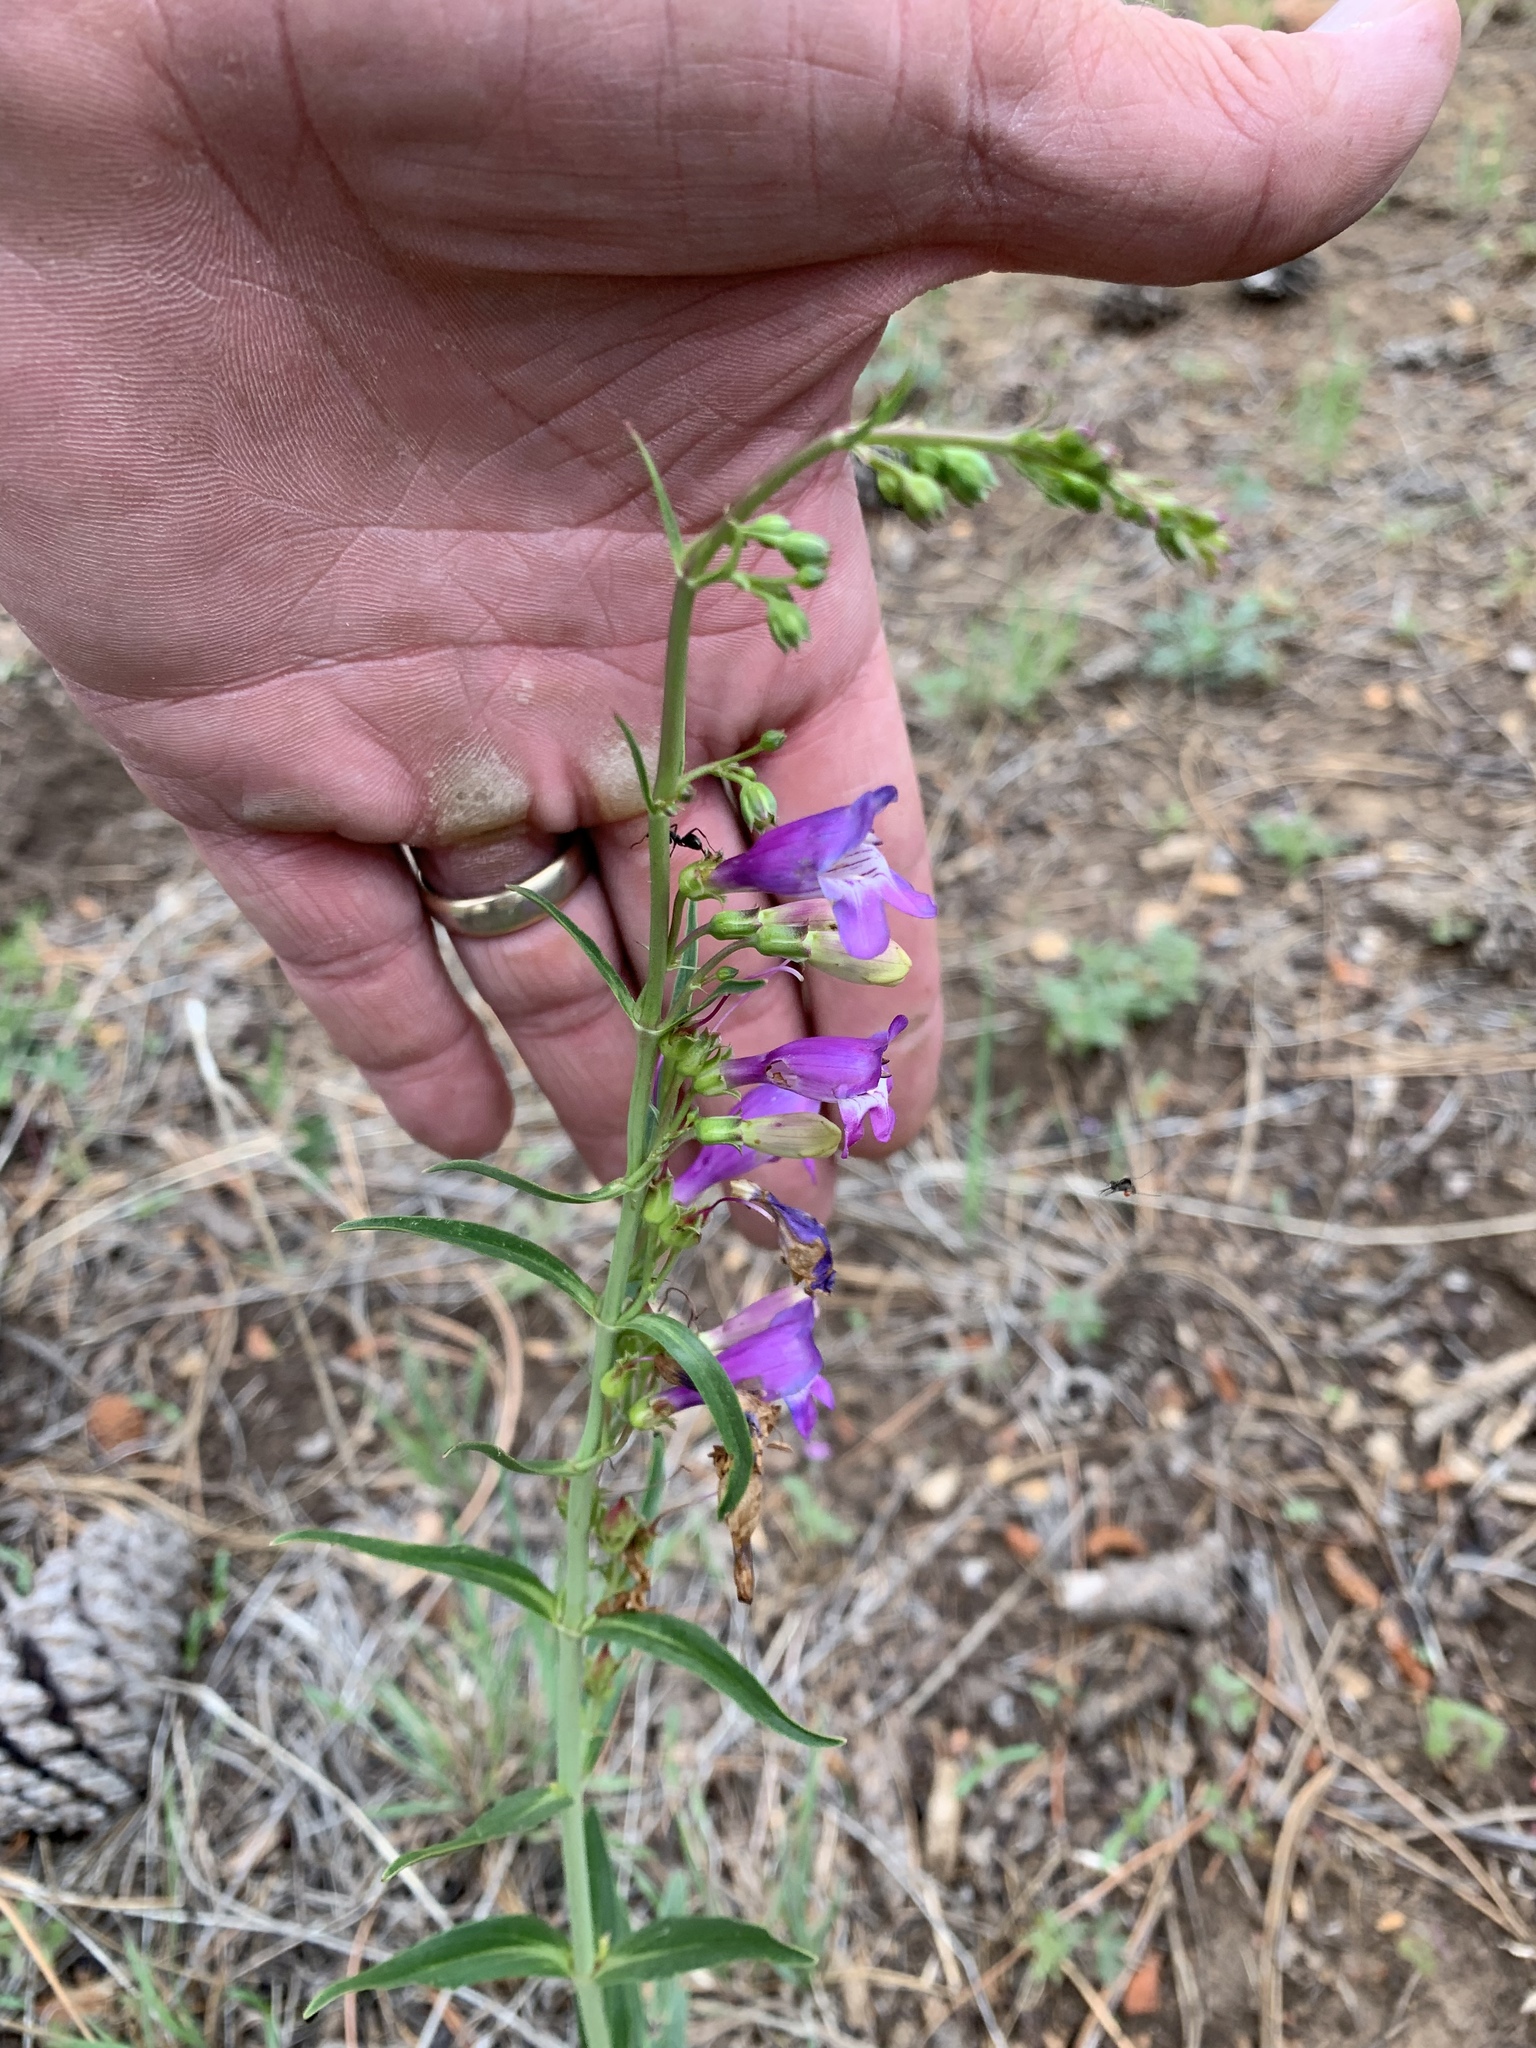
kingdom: Plantae
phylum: Tracheophyta
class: Magnoliopsida
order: Lamiales
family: Plantaginaceae
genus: Penstemon
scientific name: Penstemon neomexicanus
